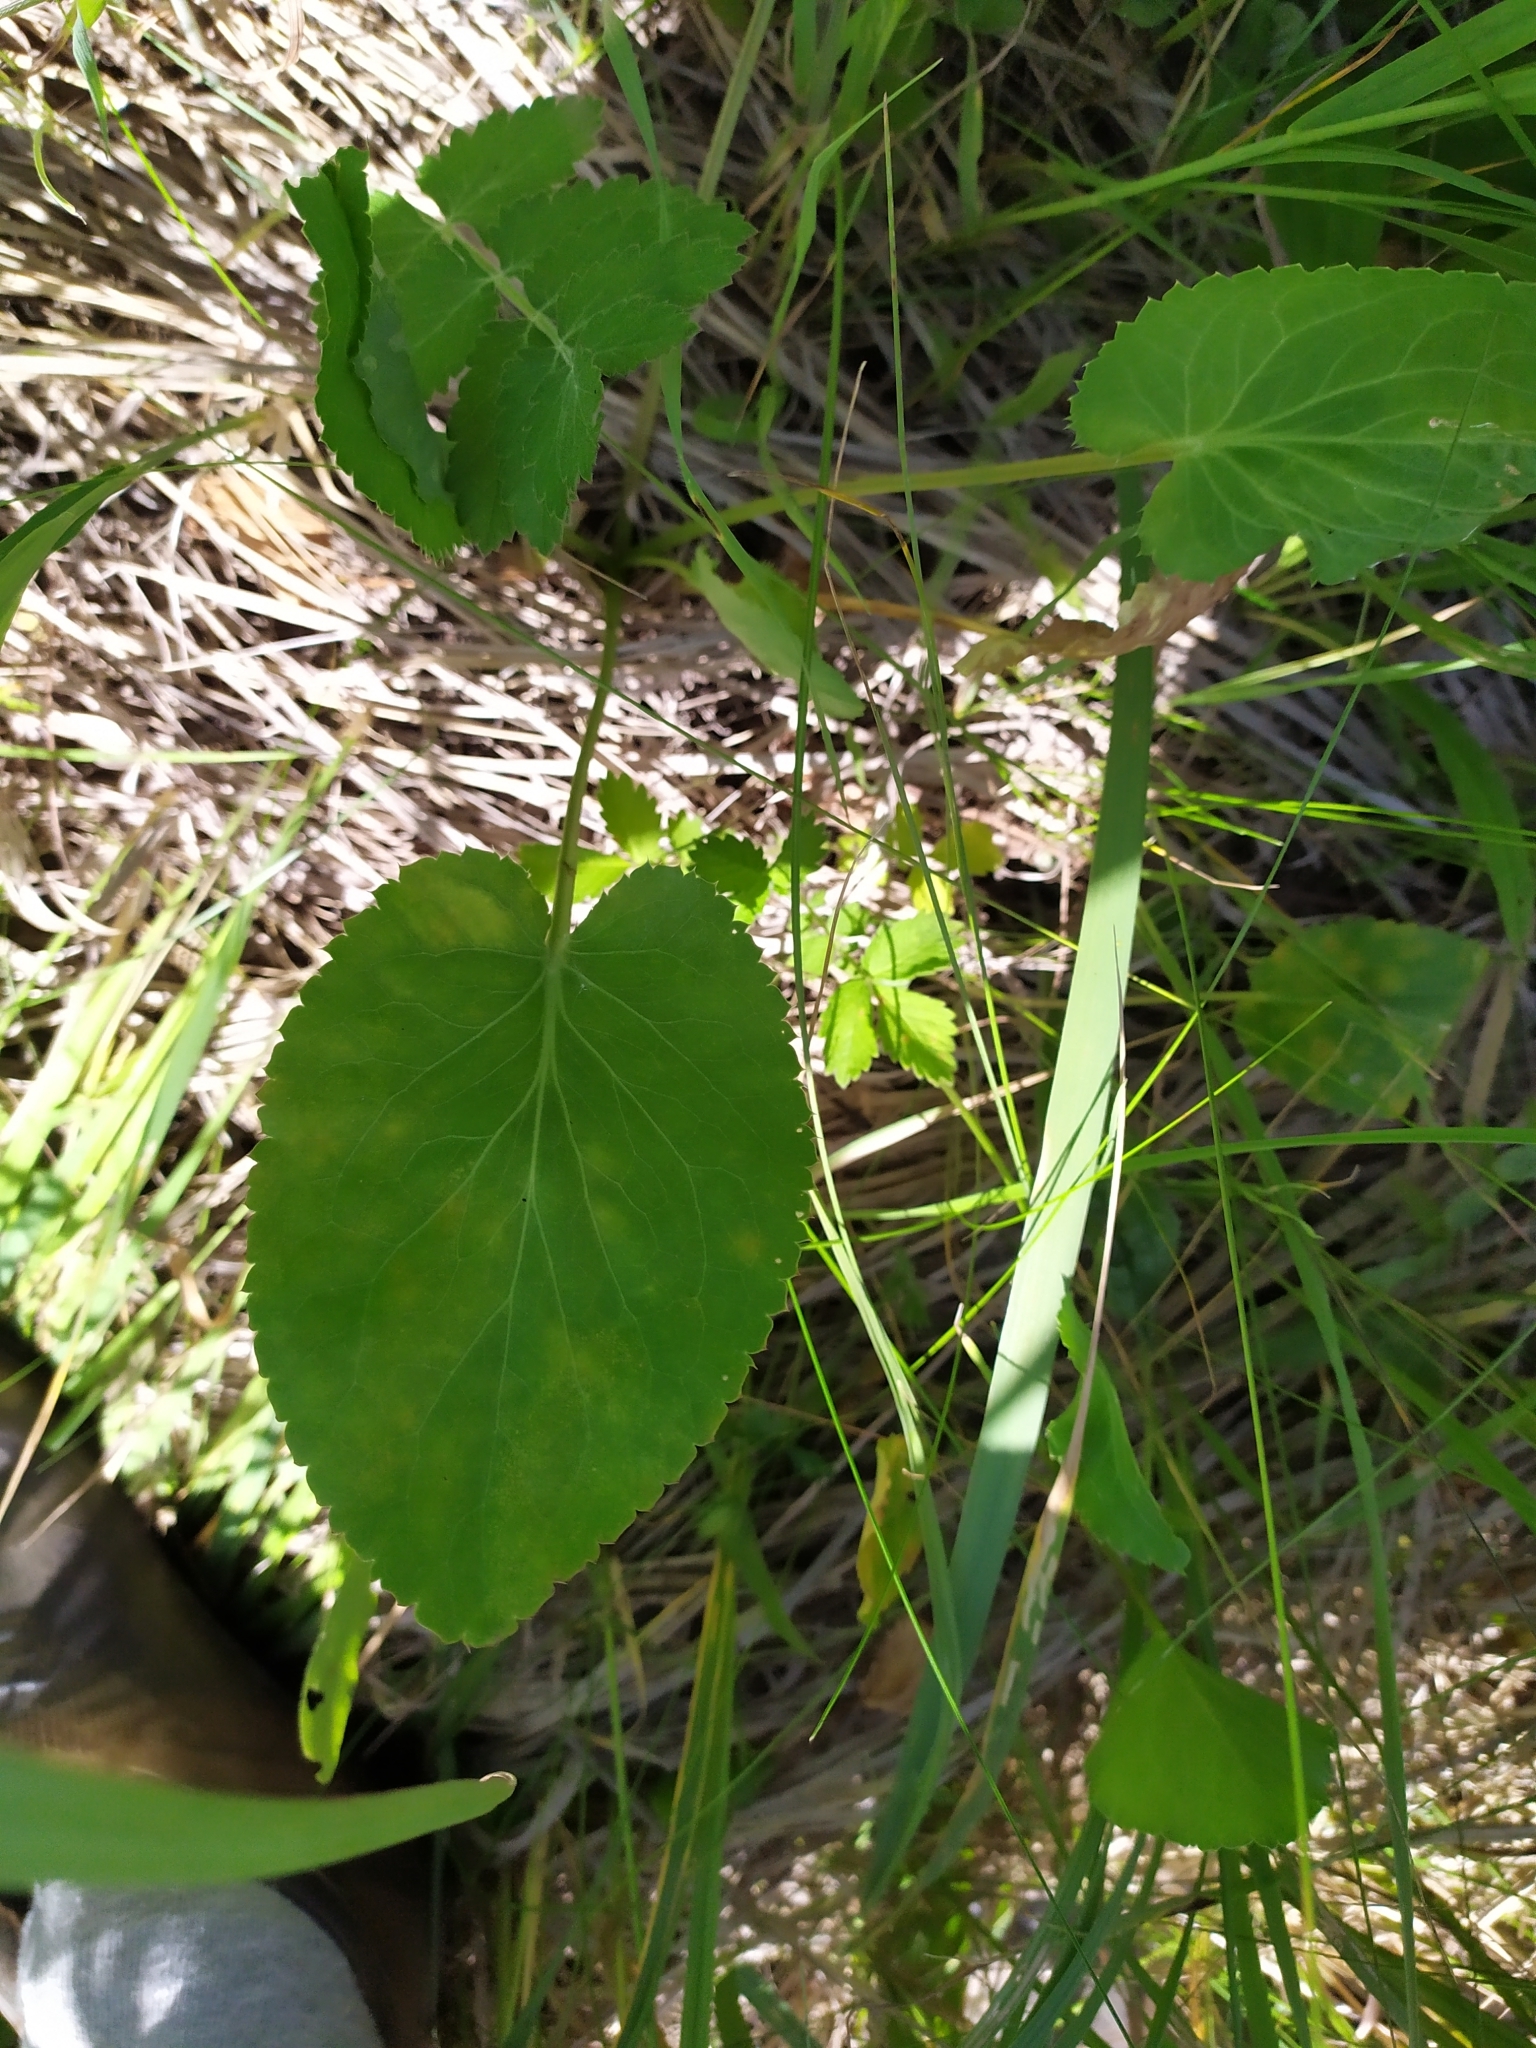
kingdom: Plantae
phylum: Tracheophyta
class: Magnoliopsida
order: Apiales
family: Apiaceae
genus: Eryngium
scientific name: Eryngium planum
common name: Blue eryngo
